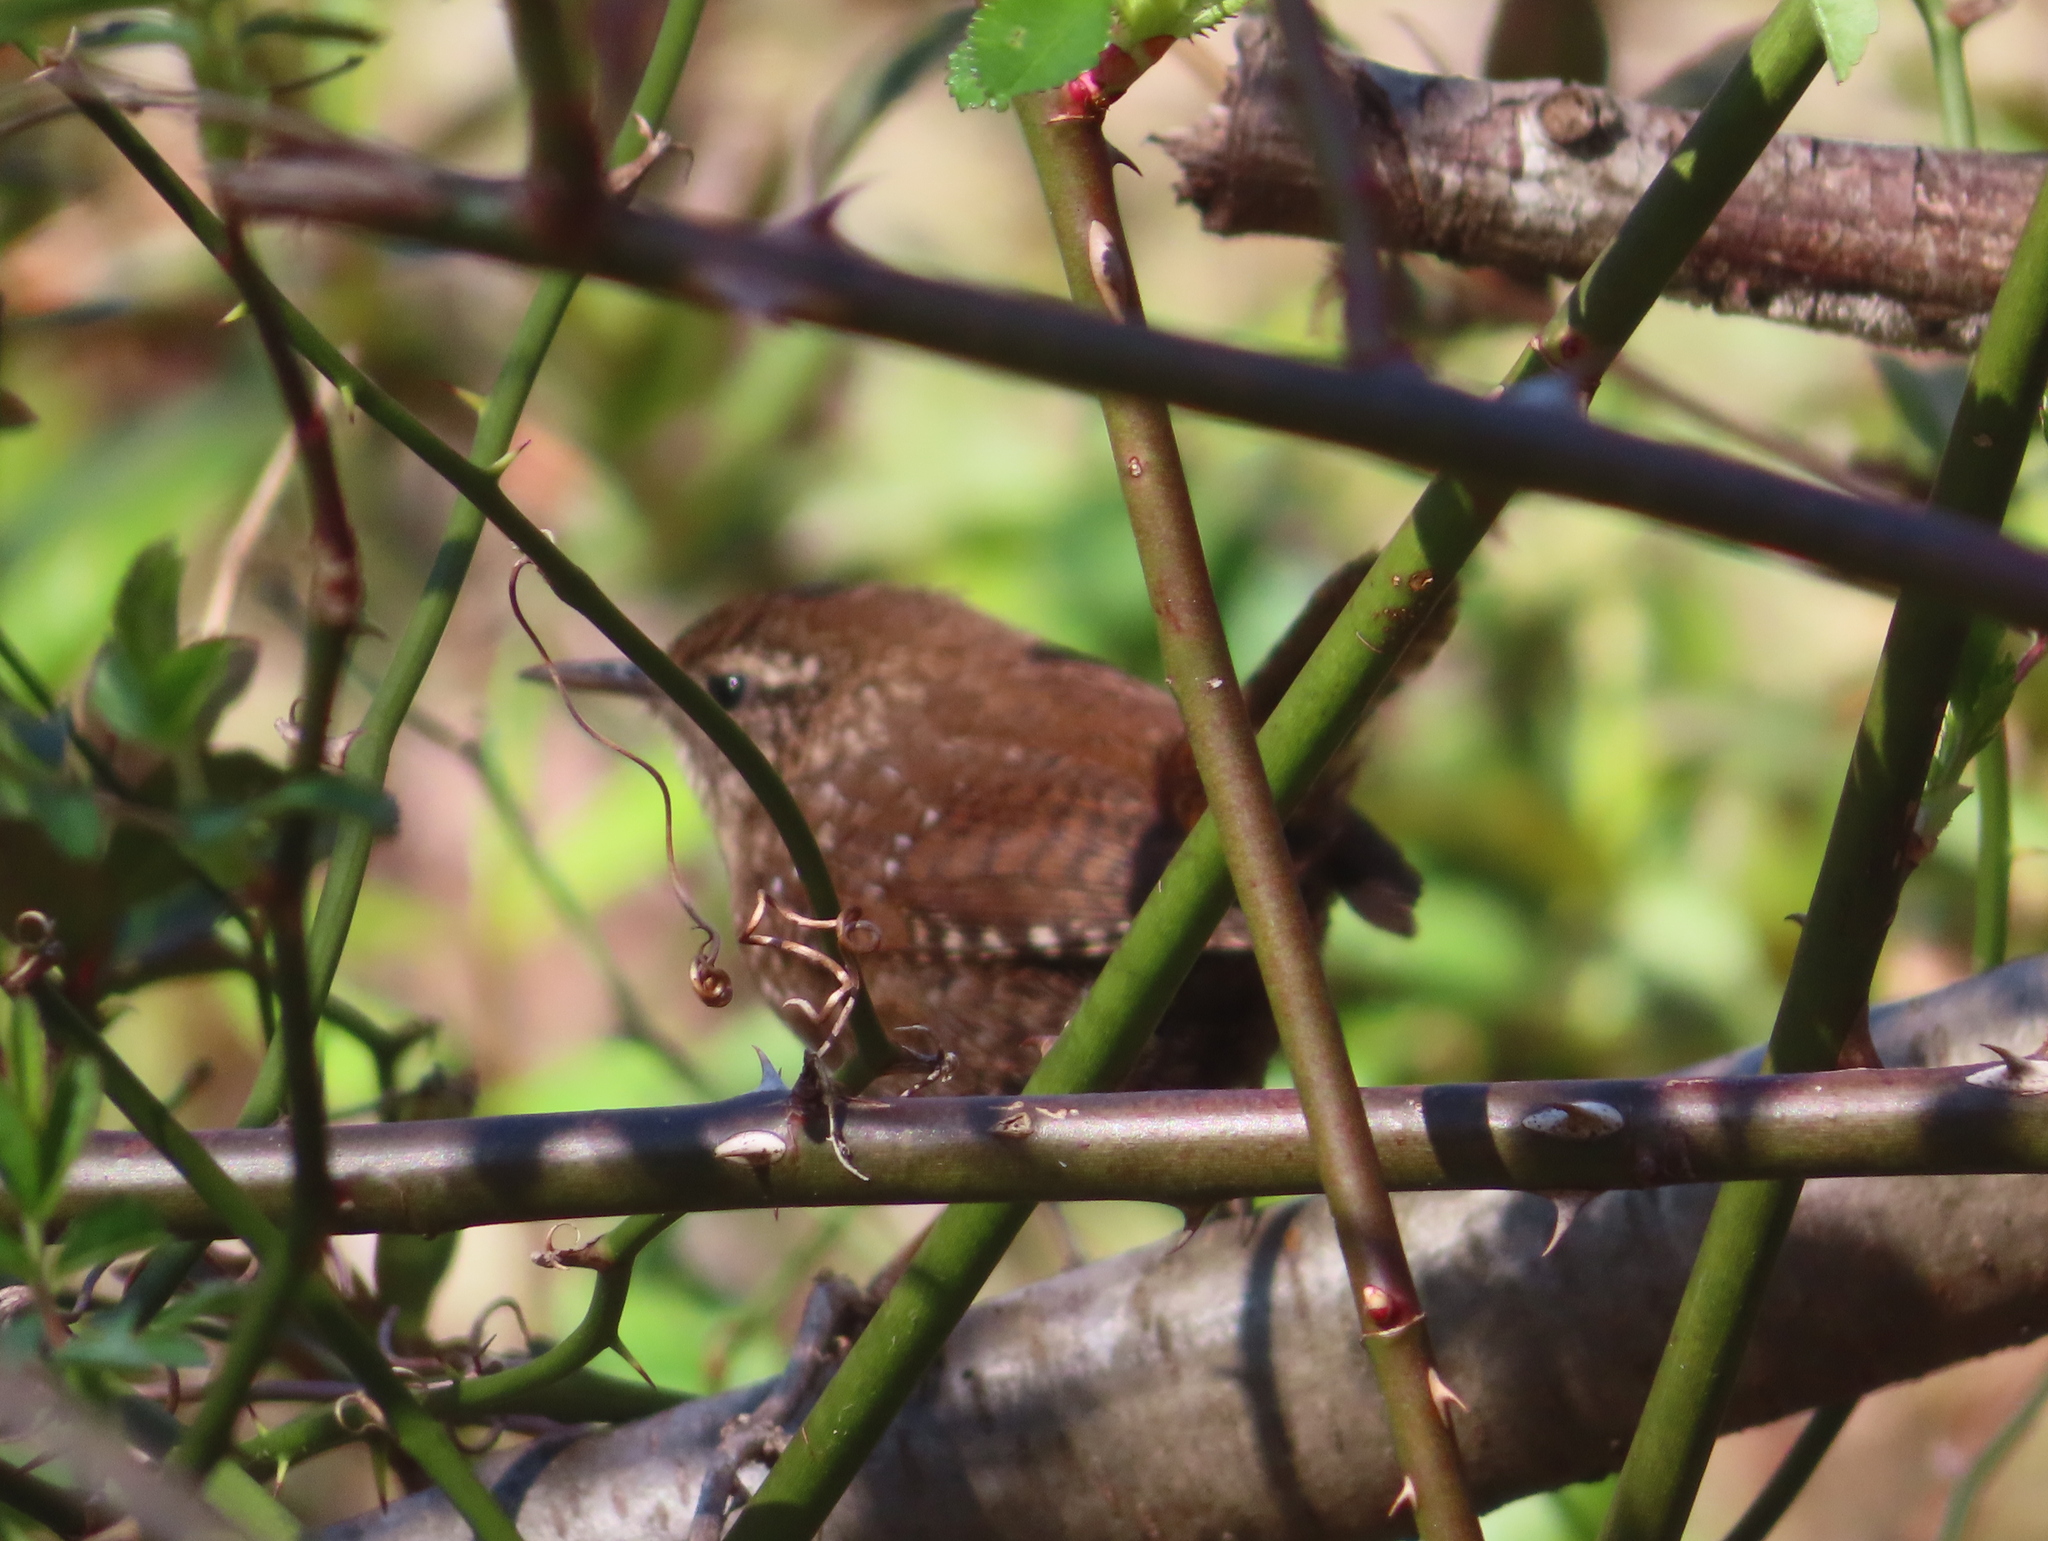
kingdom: Animalia
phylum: Chordata
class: Aves
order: Passeriformes
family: Troglodytidae
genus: Troglodytes
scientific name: Troglodytes hiemalis
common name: Winter wren
